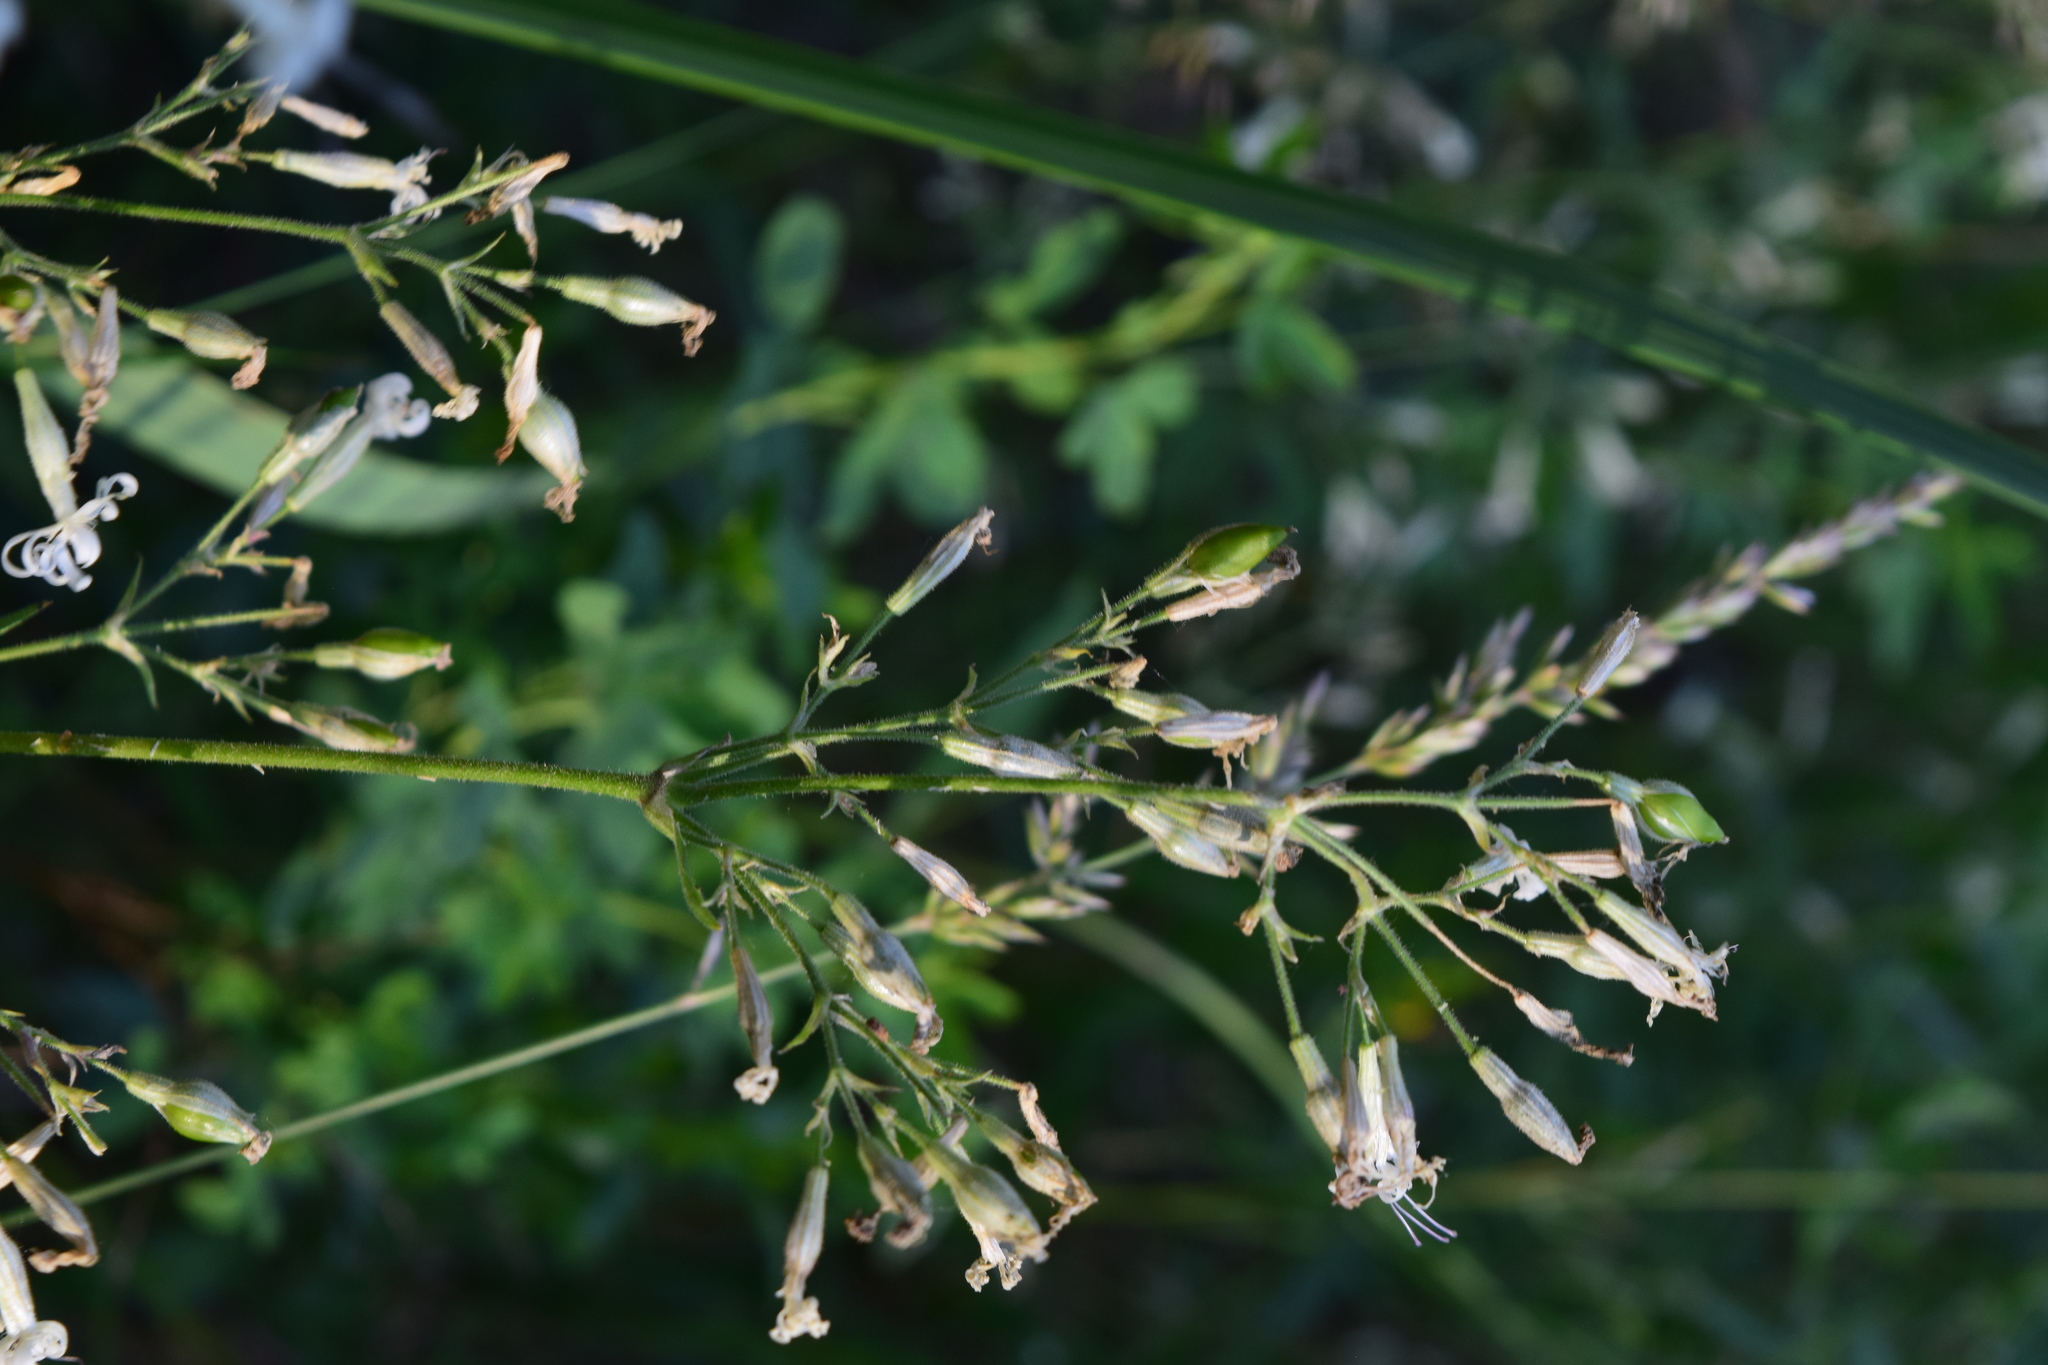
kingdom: Plantae
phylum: Tracheophyta
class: Magnoliopsida
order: Caryophyllales
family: Caryophyllaceae
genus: Silene
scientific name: Silene nutans
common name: Nottingham catchfly
